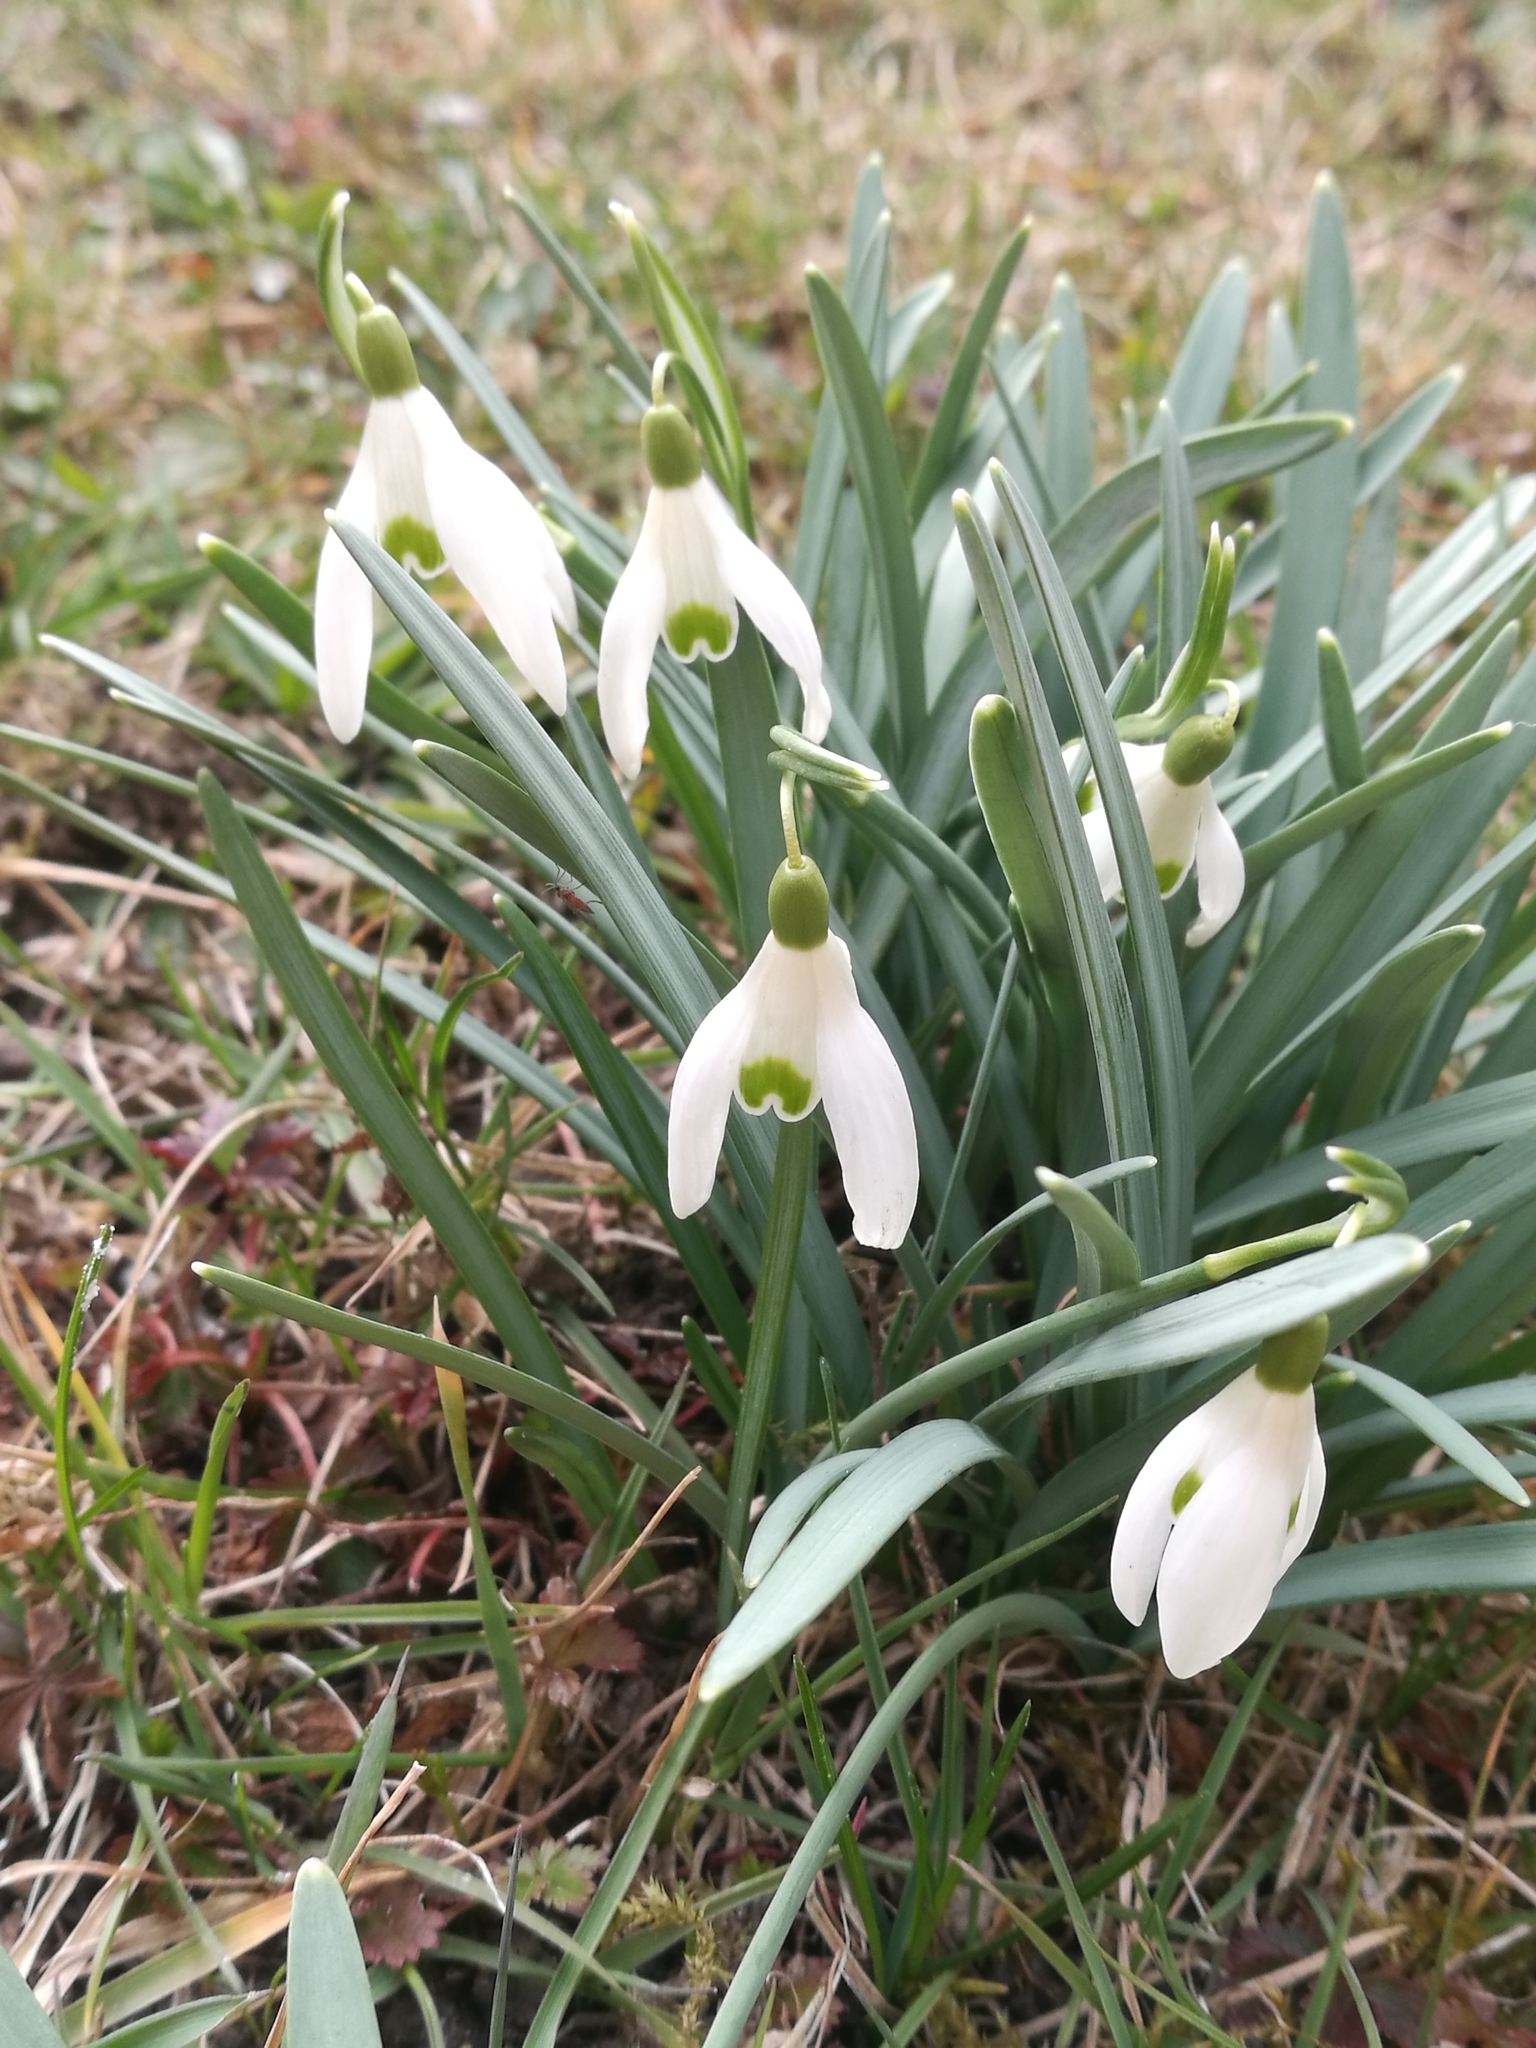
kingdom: Plantae
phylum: Tracheophyta
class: Liliopsida
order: Asparagales
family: Amaryllidaceae
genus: Galanthus
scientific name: Galanthus nivalis
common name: Snowdrop
